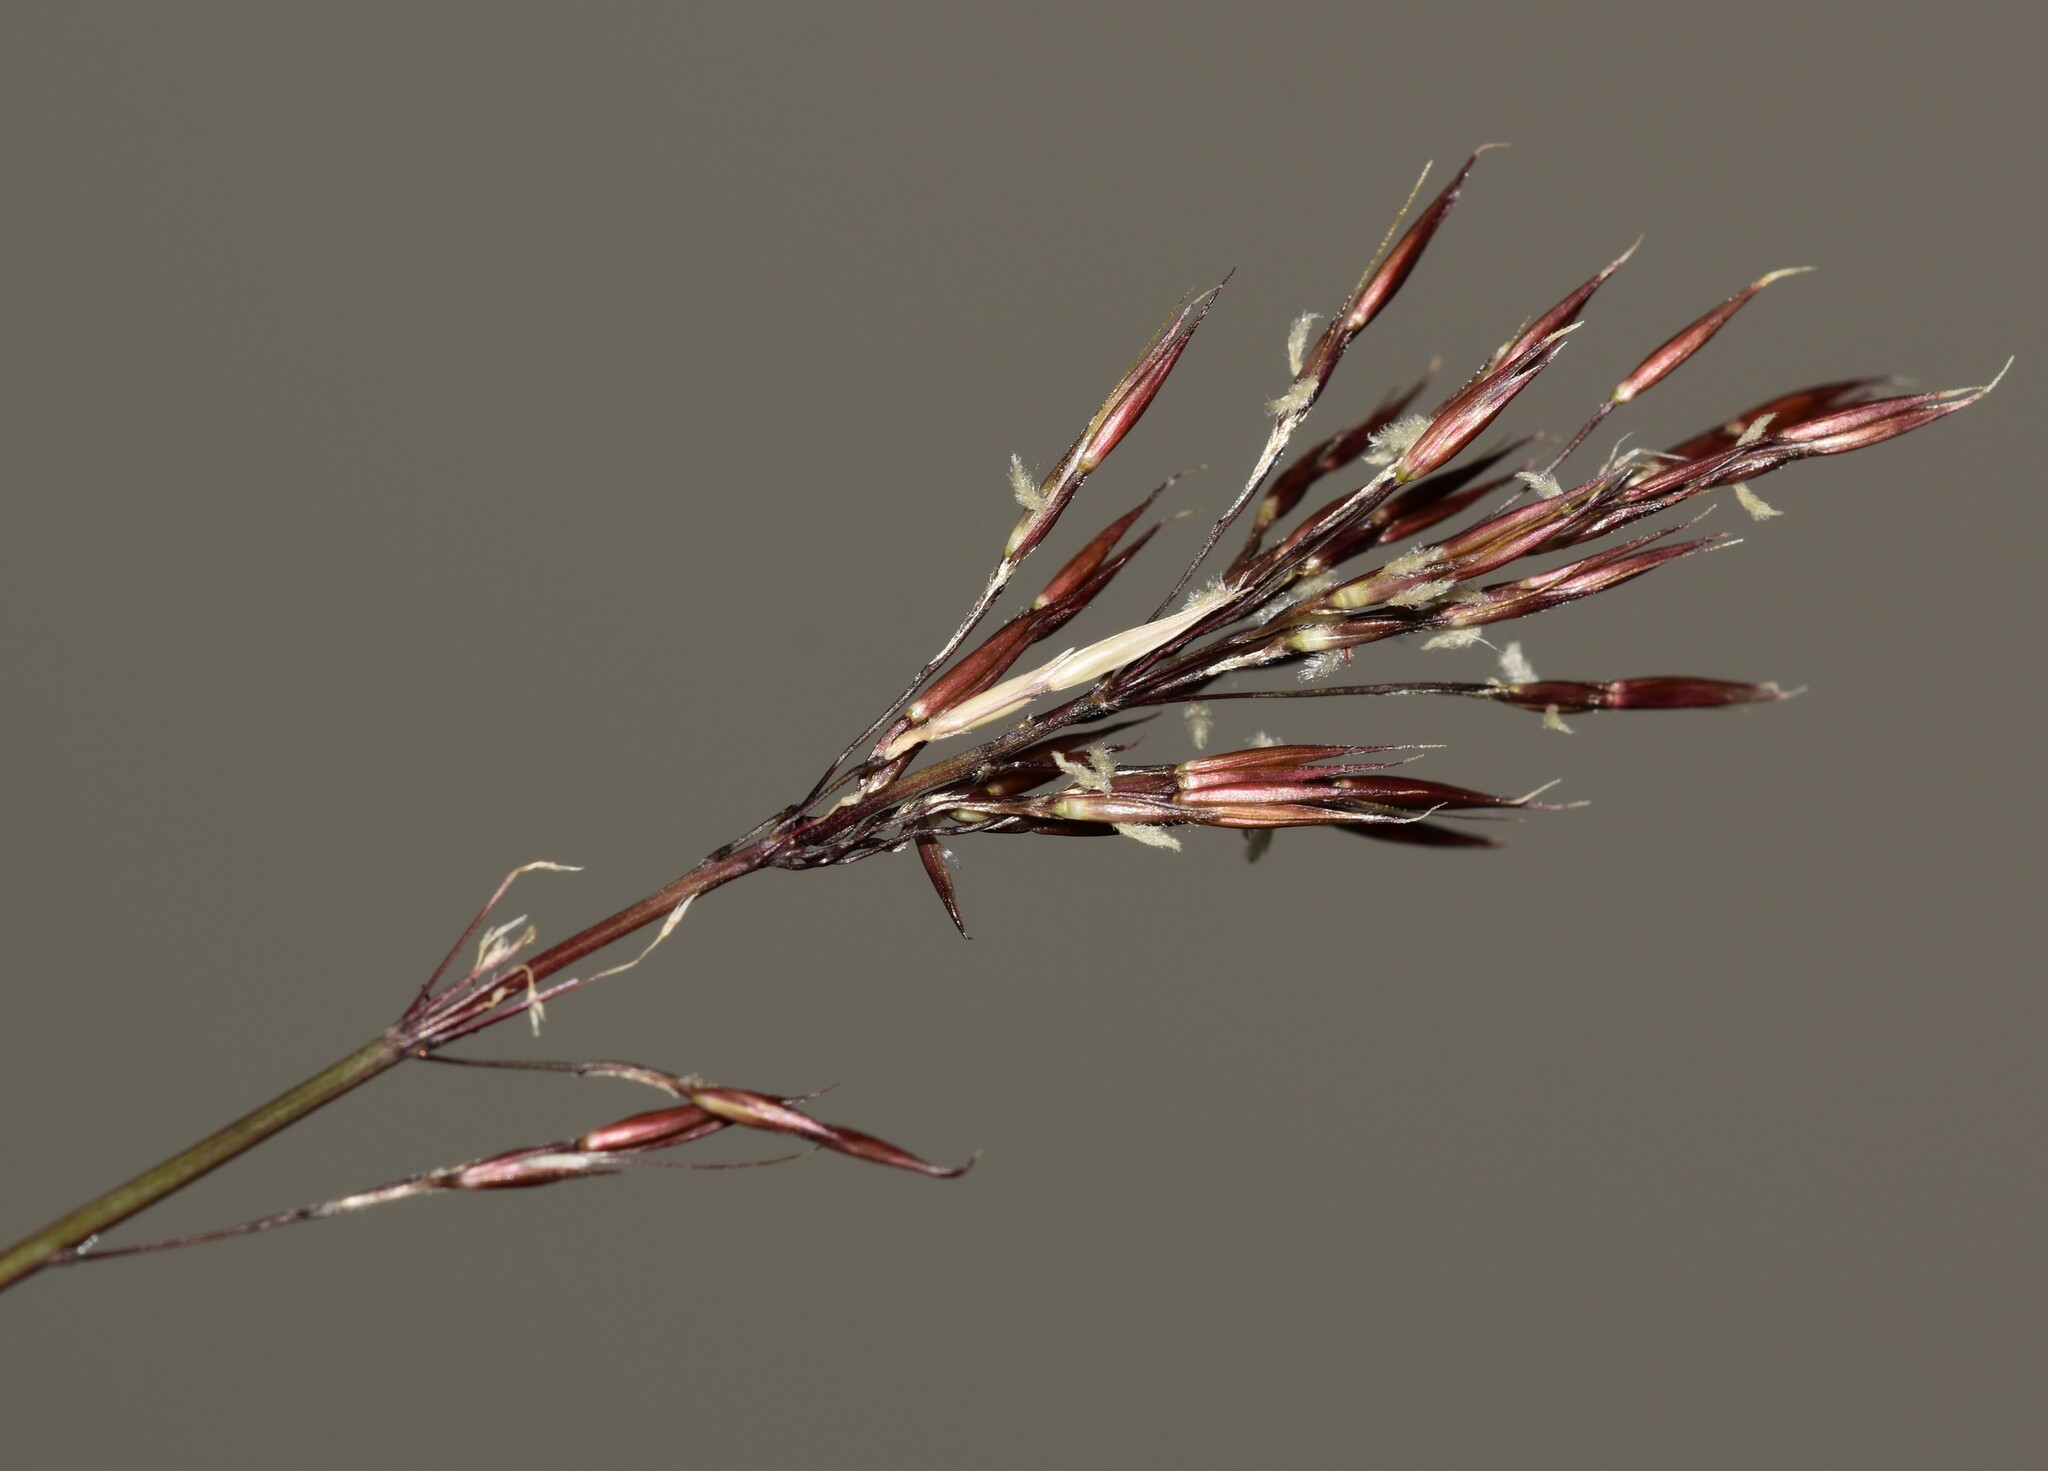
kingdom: Plantae
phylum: Tracheophyta
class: Liliopsida
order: Poales
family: Poaceae
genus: Chrysopogon
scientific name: Chrysopogon aciculatus
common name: Pilipiliula
